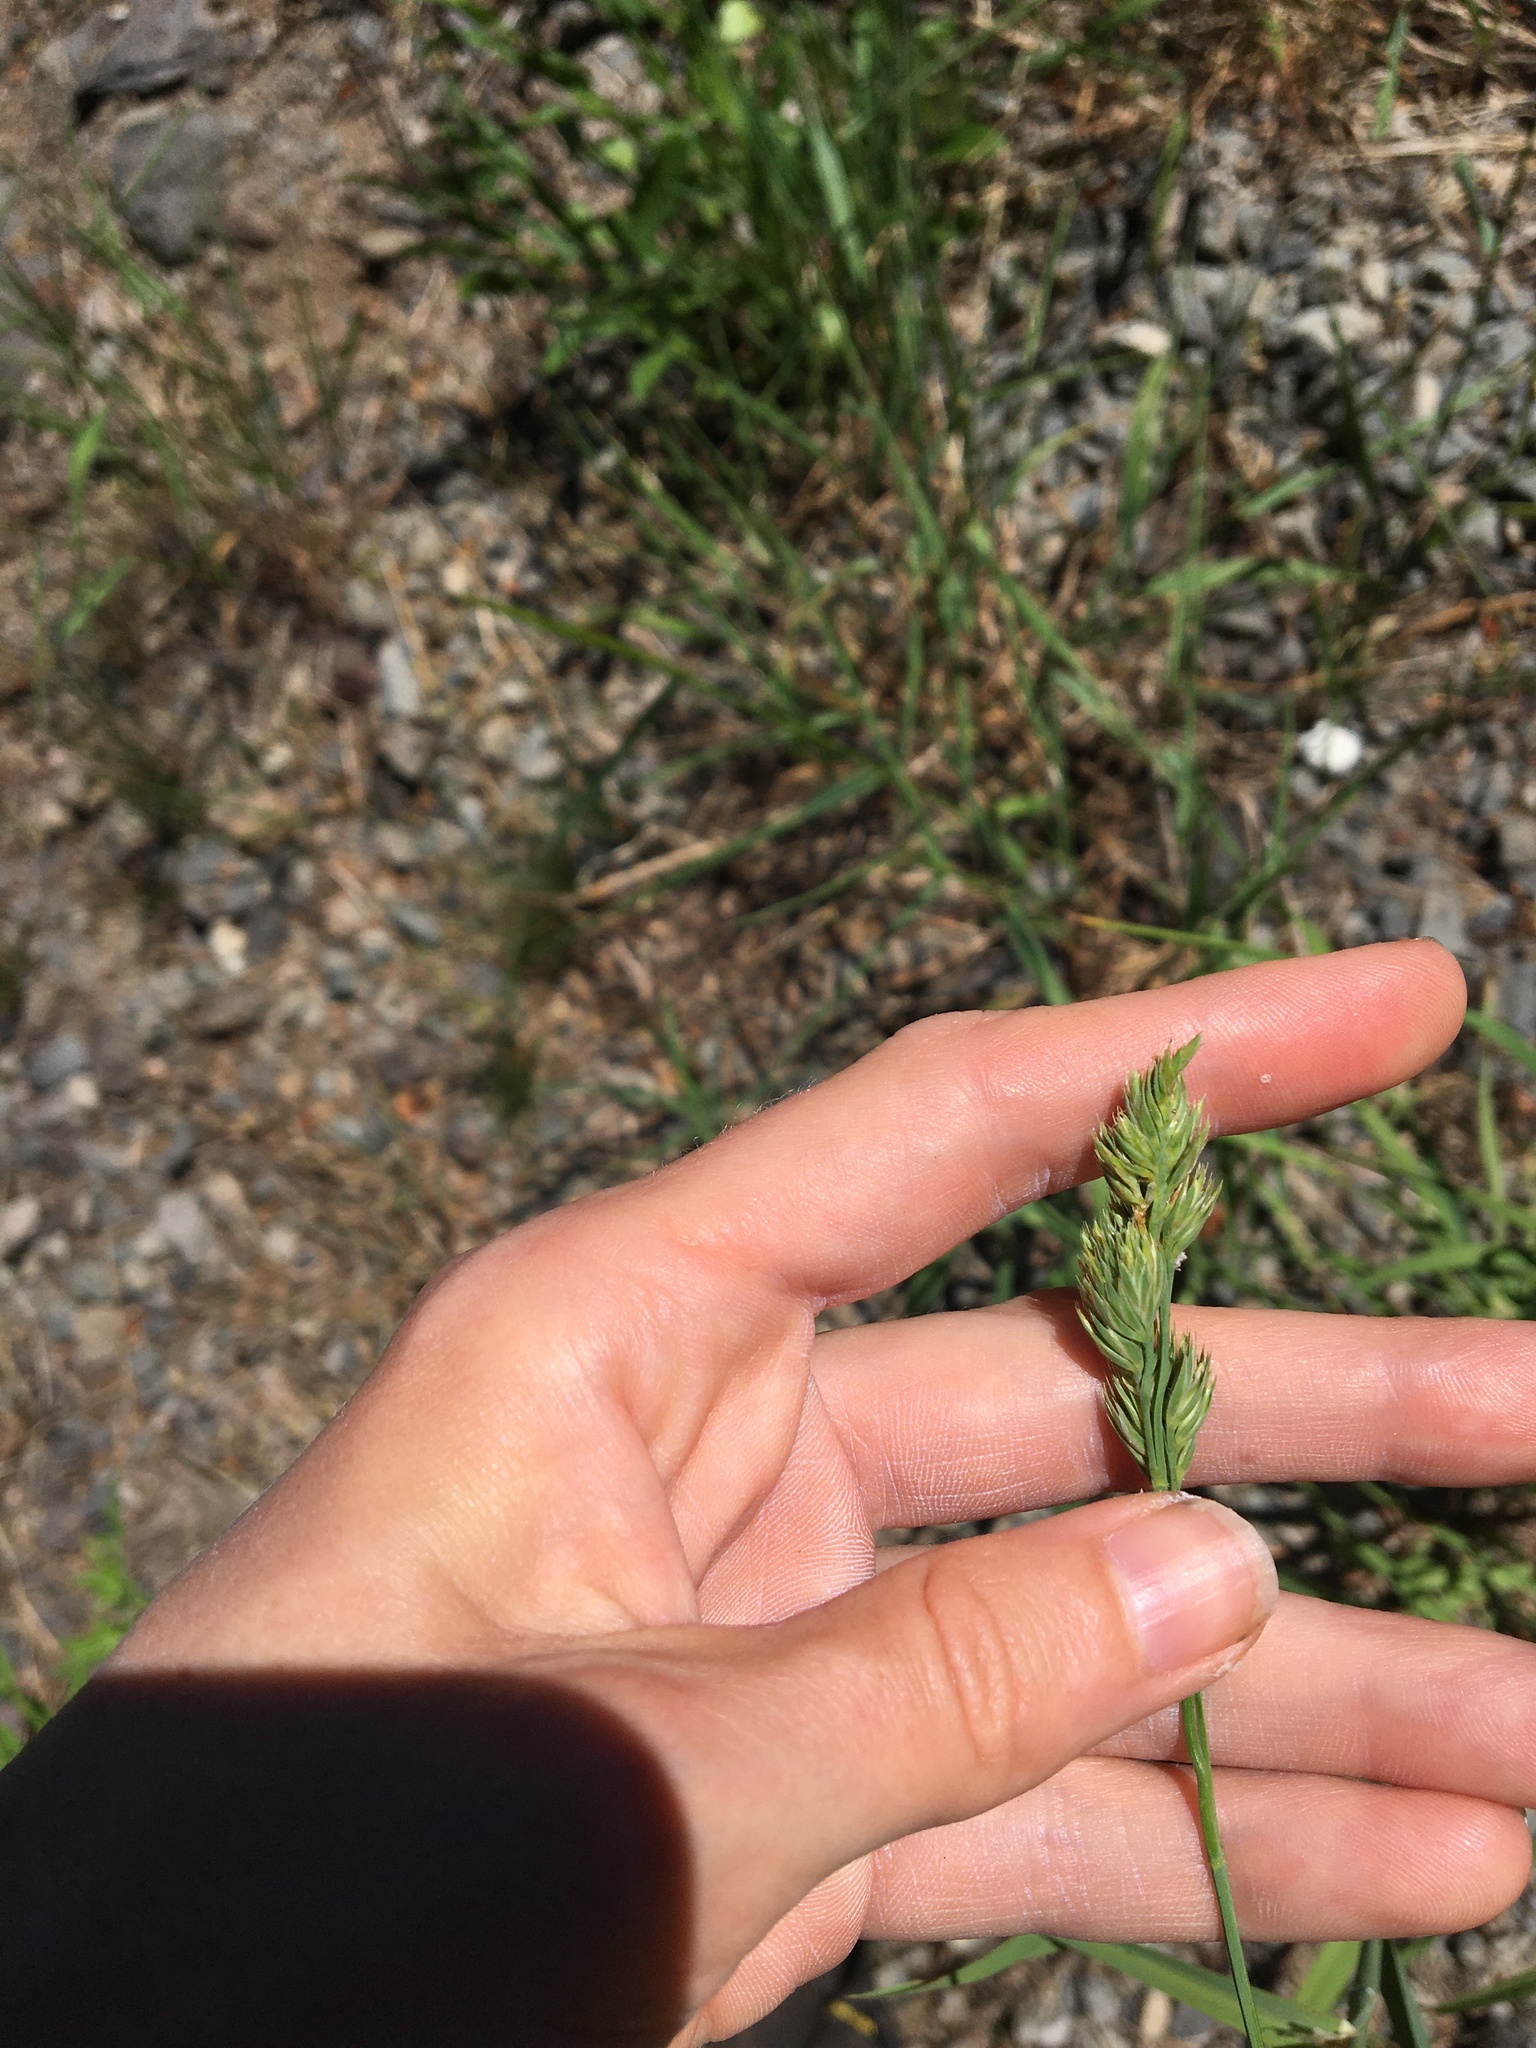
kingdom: Plantae
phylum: Tracheophyta
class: Liliopsida
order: Poales
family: Poaceae
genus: Dactylis
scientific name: Dactylis glomerata
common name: Orchardgrass
